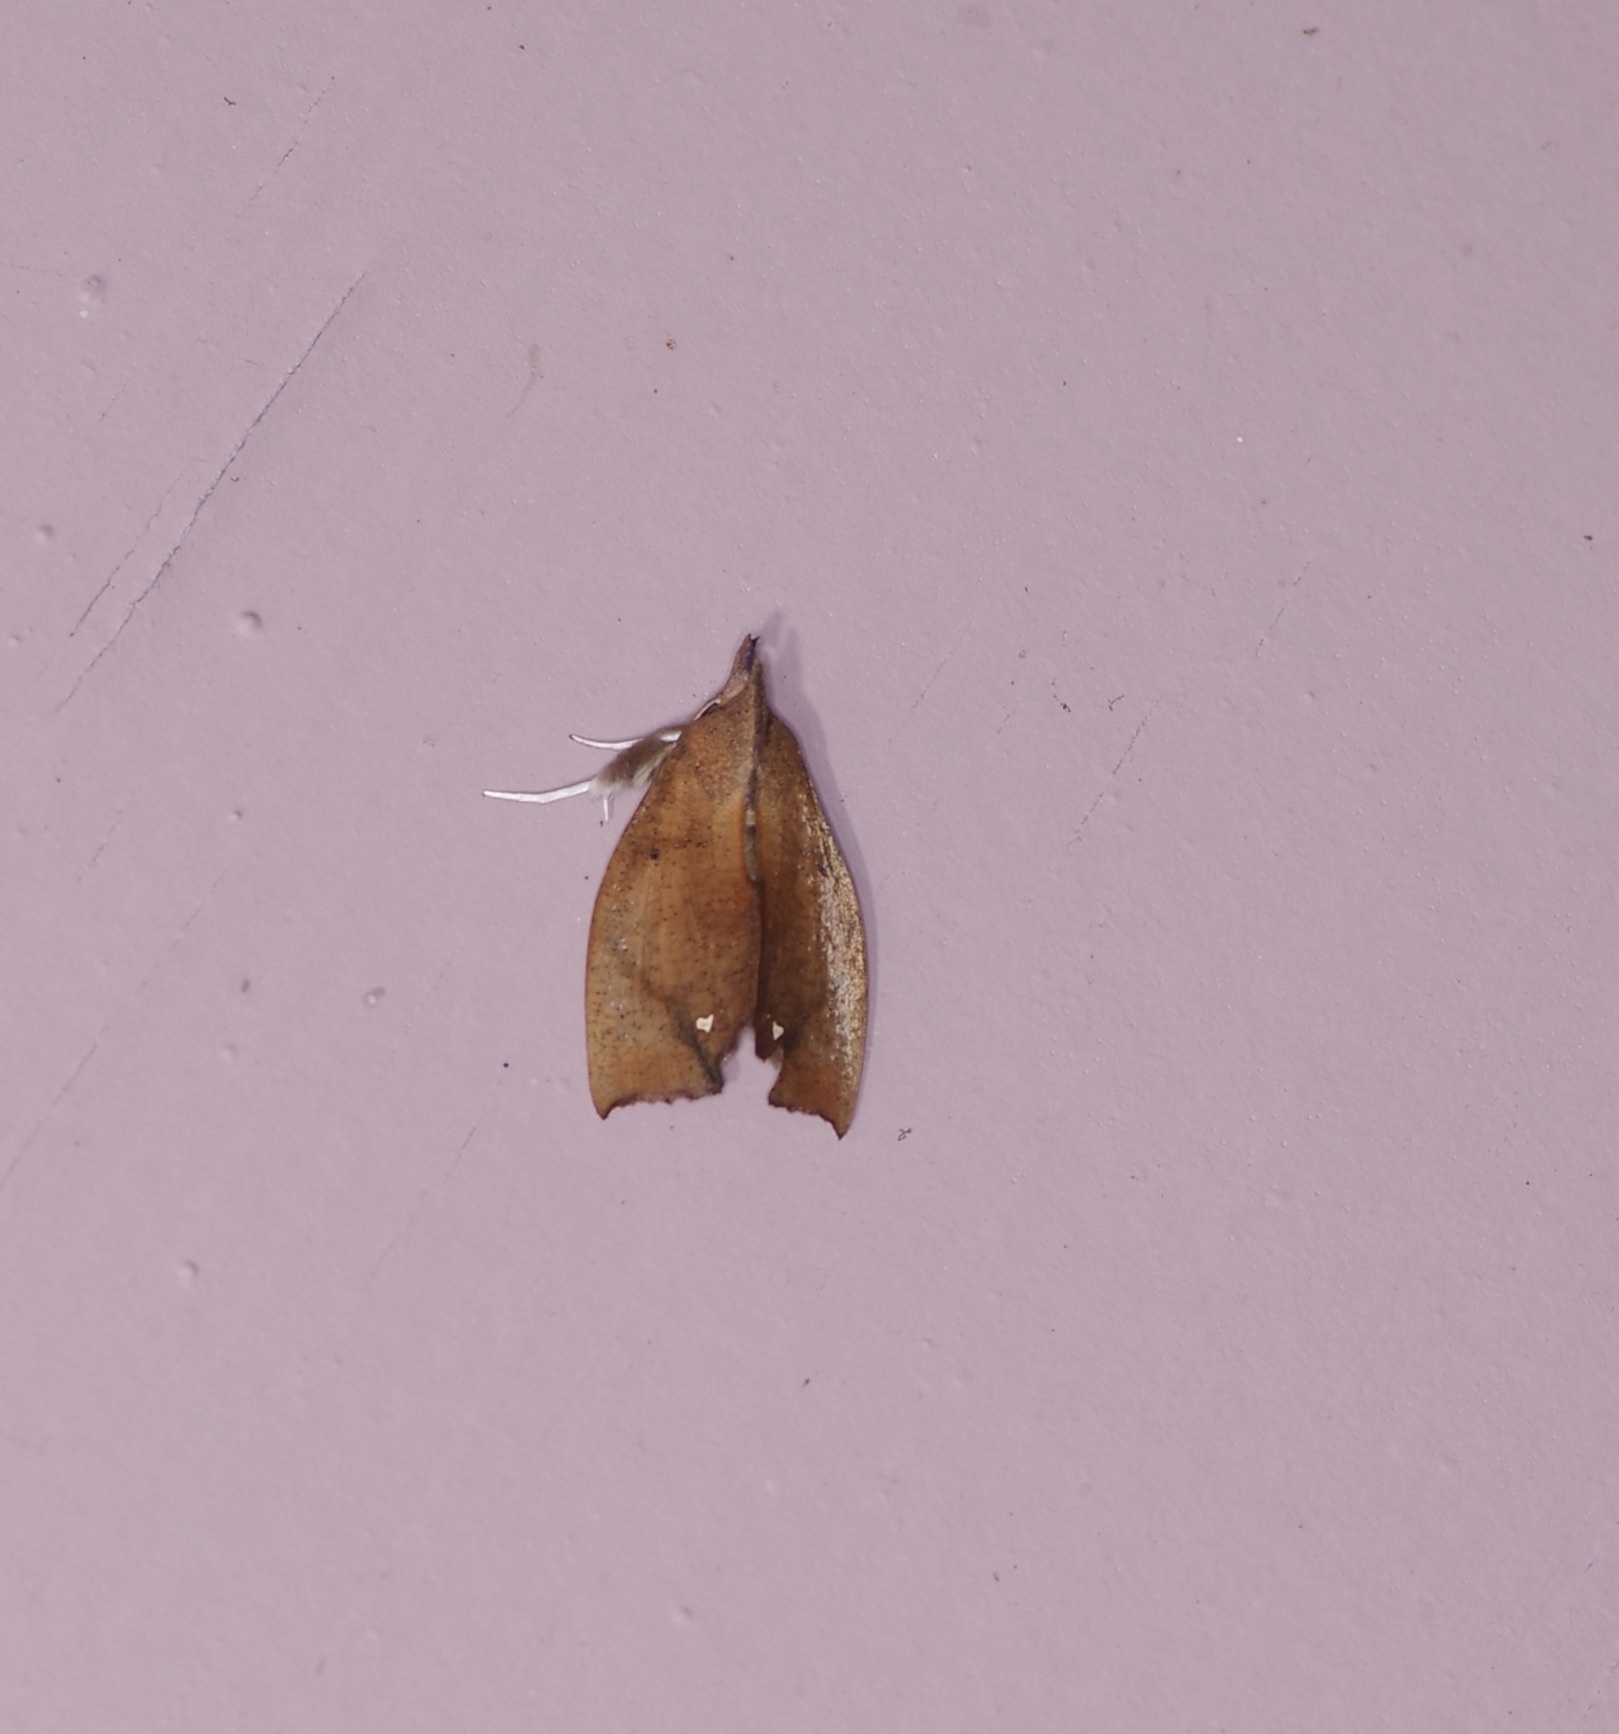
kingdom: Animalia
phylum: Arthropoda
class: Insecta
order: Lepidoptera
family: Erebidae
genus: Goniapteryx
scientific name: Goniapteryx servia
